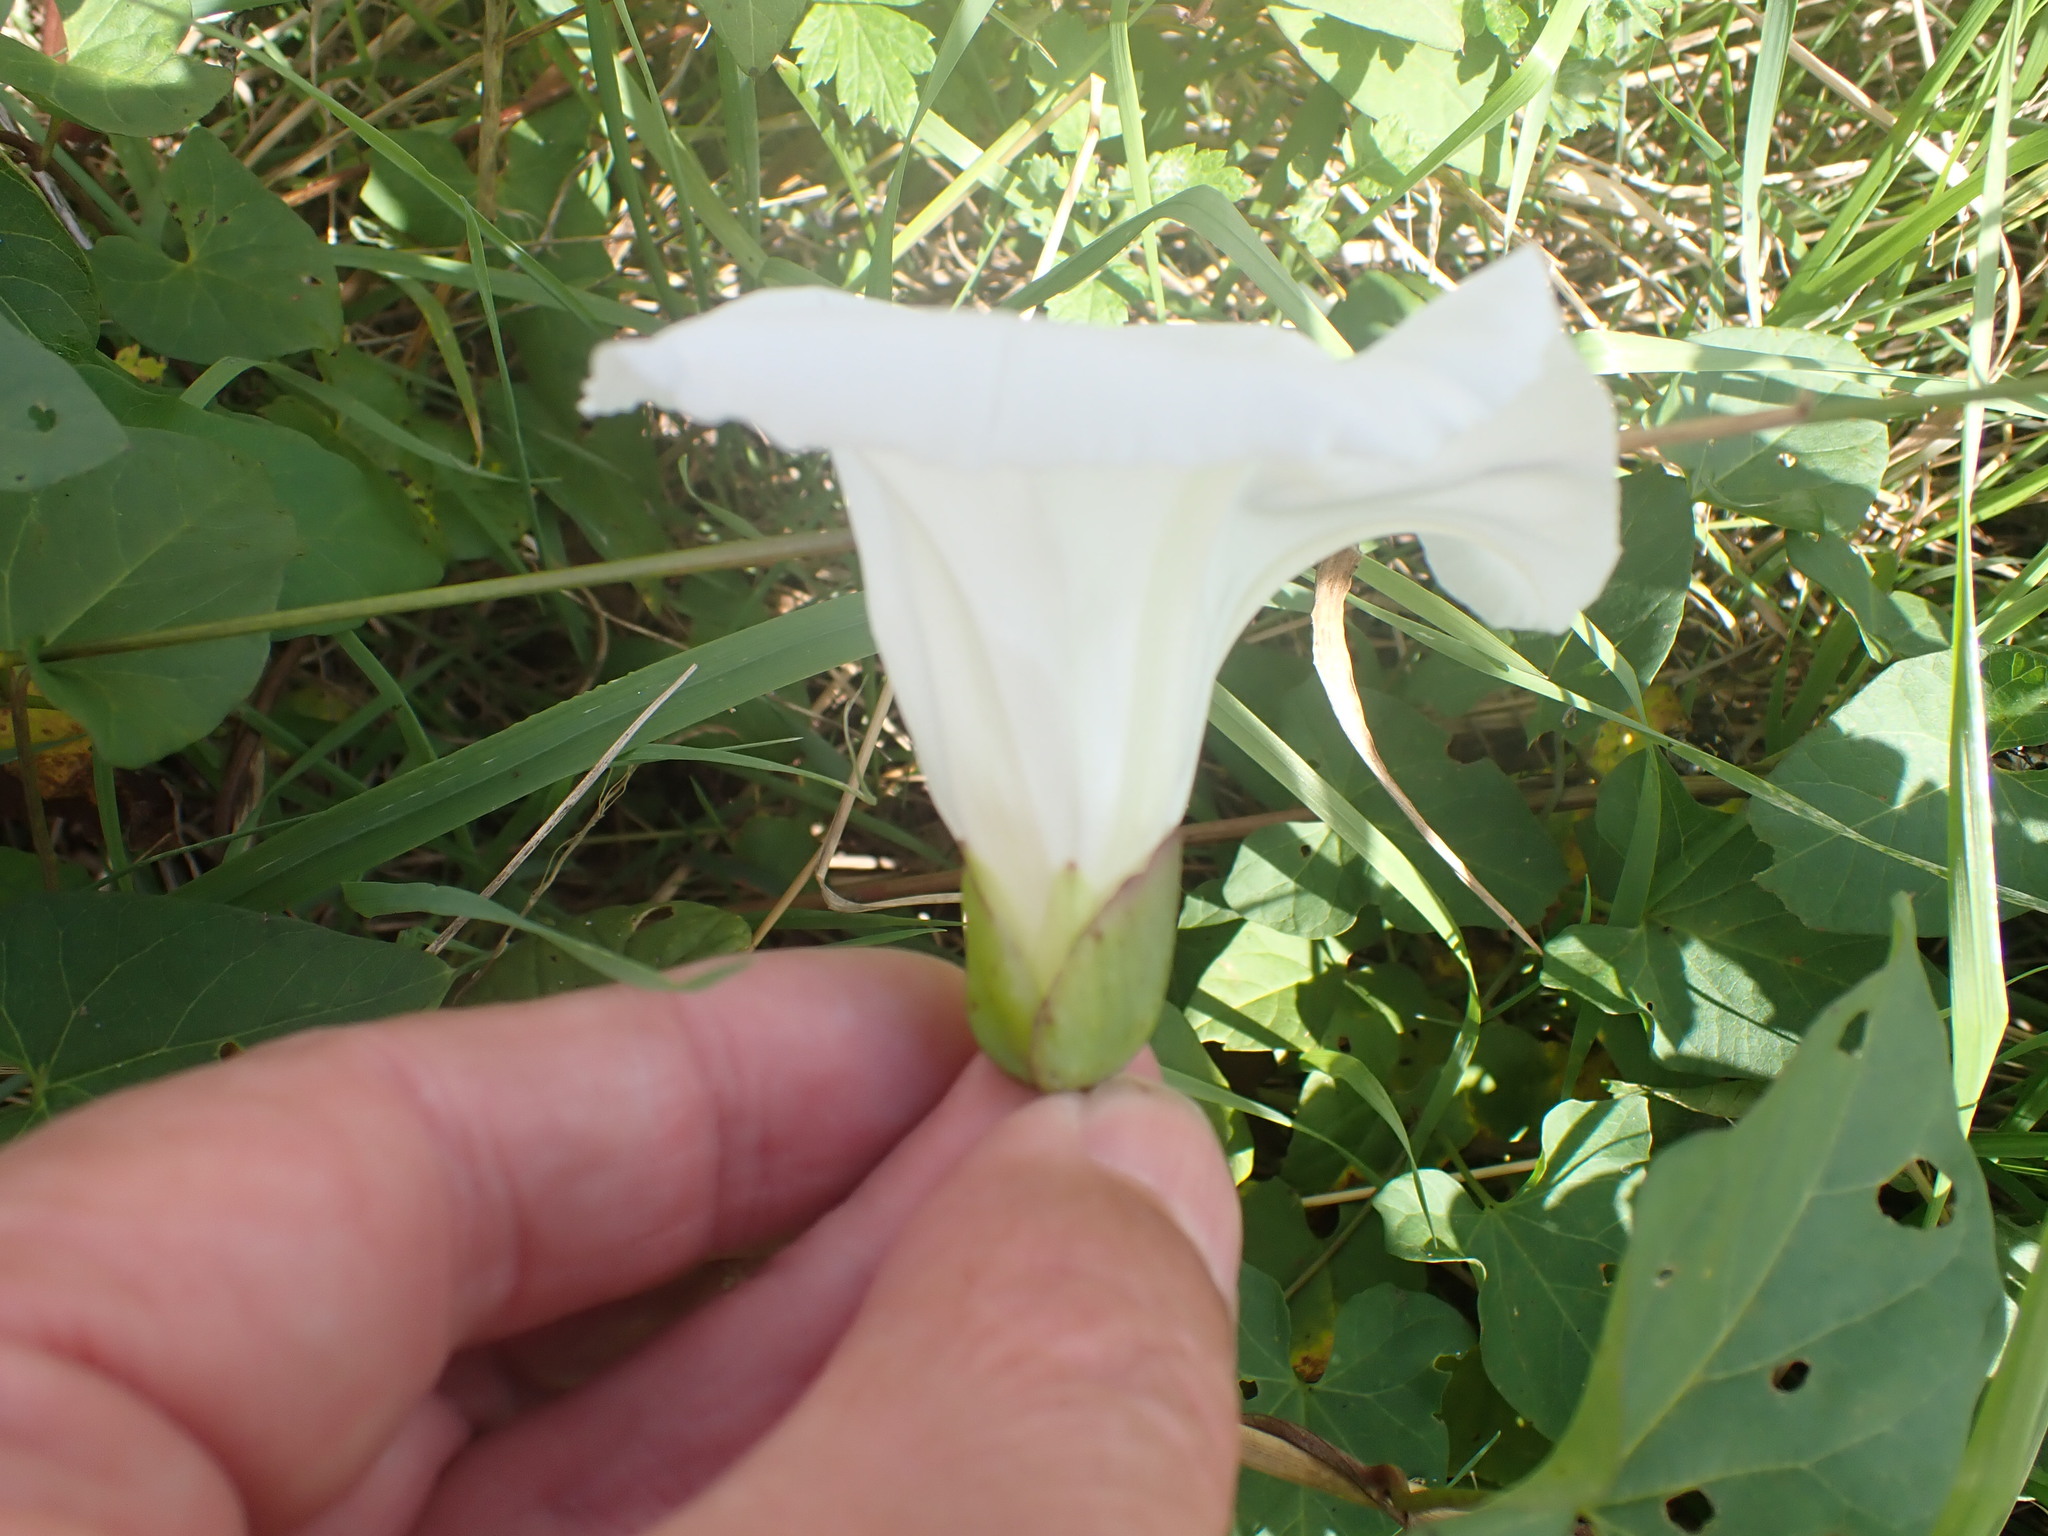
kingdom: Plantae
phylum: Tracheophyta
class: Magnoliopsida
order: Solanales
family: Convolvulaceae
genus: Calystegia
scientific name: Calystegia sepium
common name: Hedge bindweed
